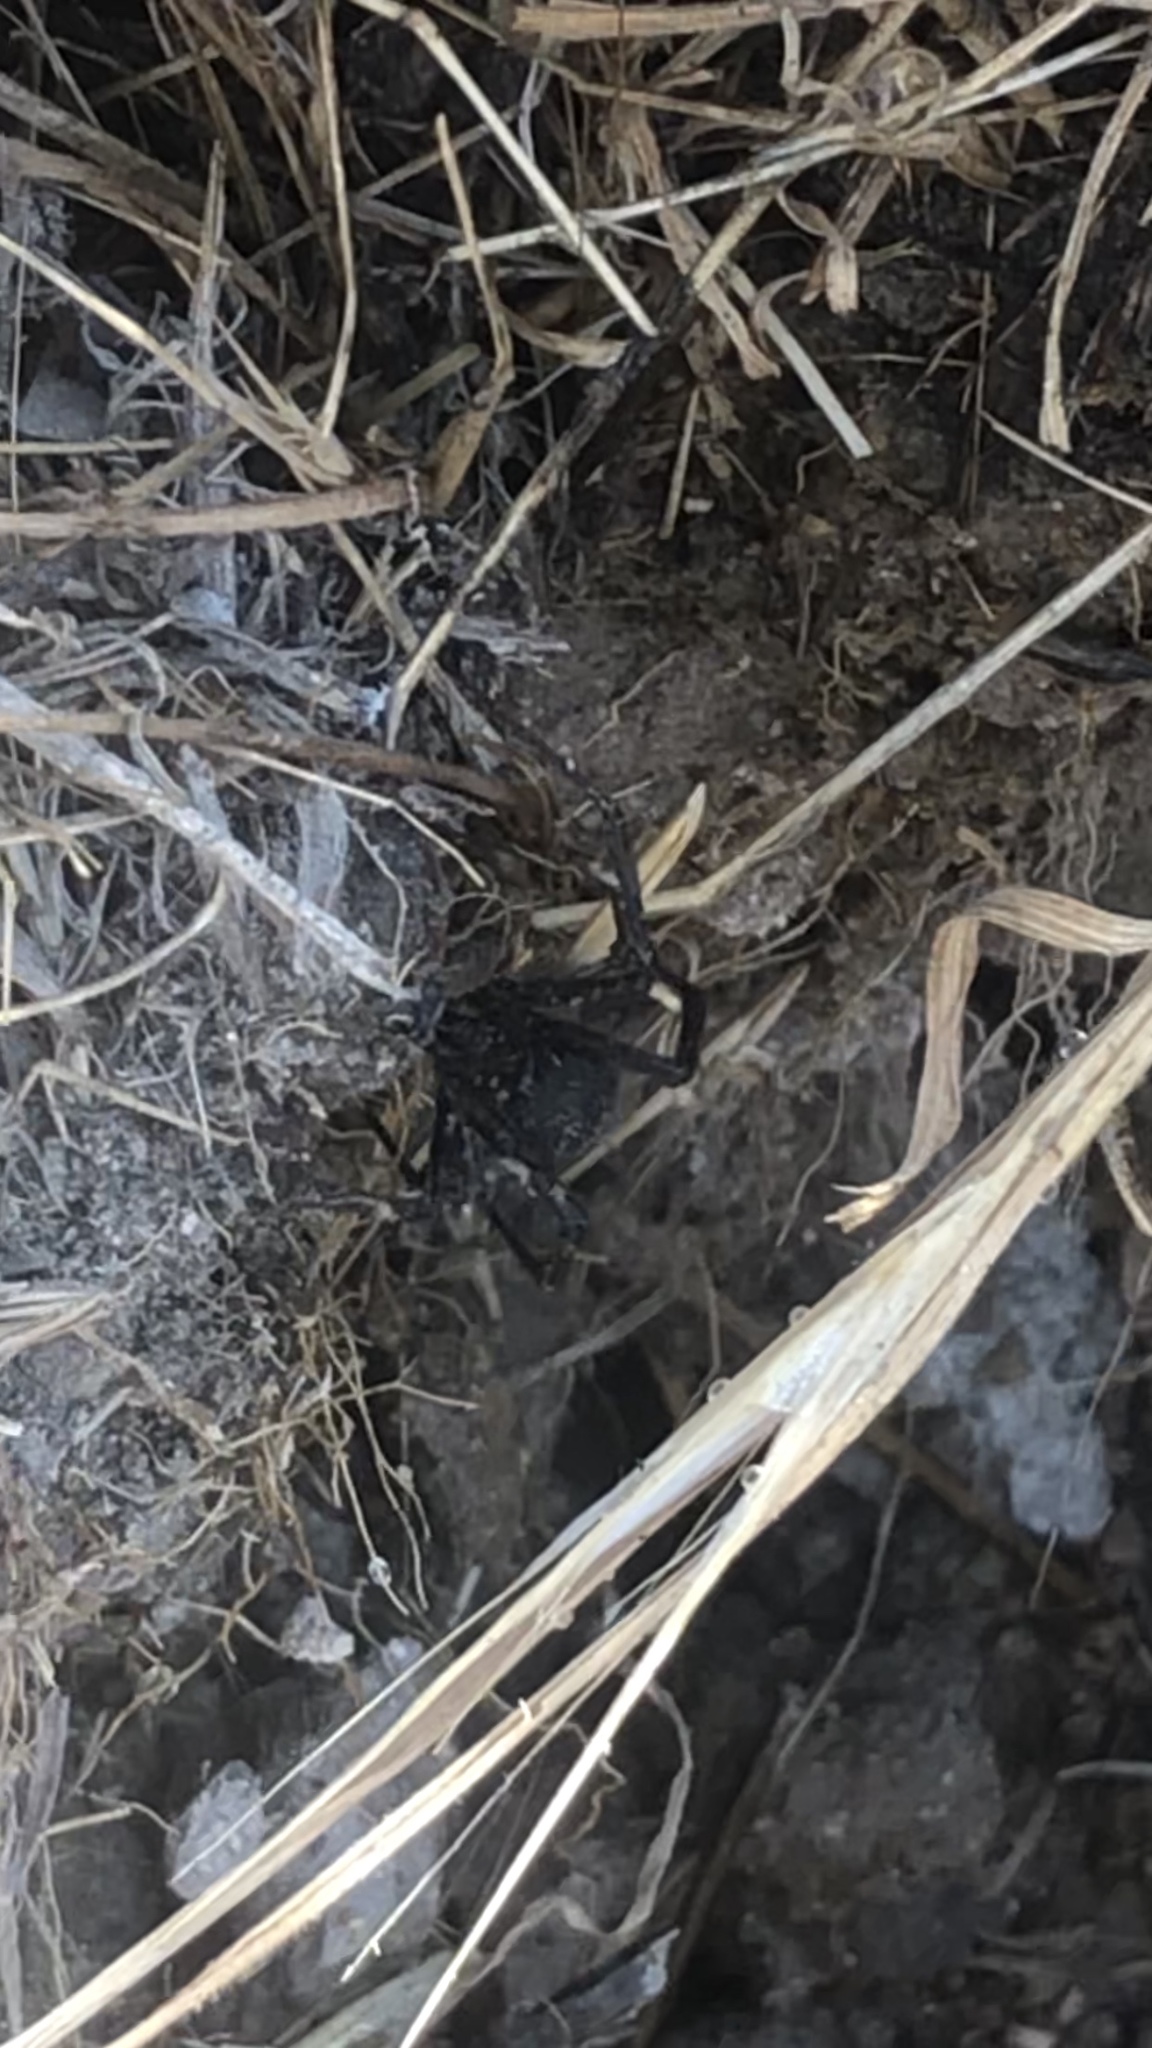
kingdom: Animalia
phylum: Arthropoda
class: Arachnida
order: Araneae
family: Theridiidae
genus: Latrodectus
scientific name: Latrodectus hesperus
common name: Western black widow
